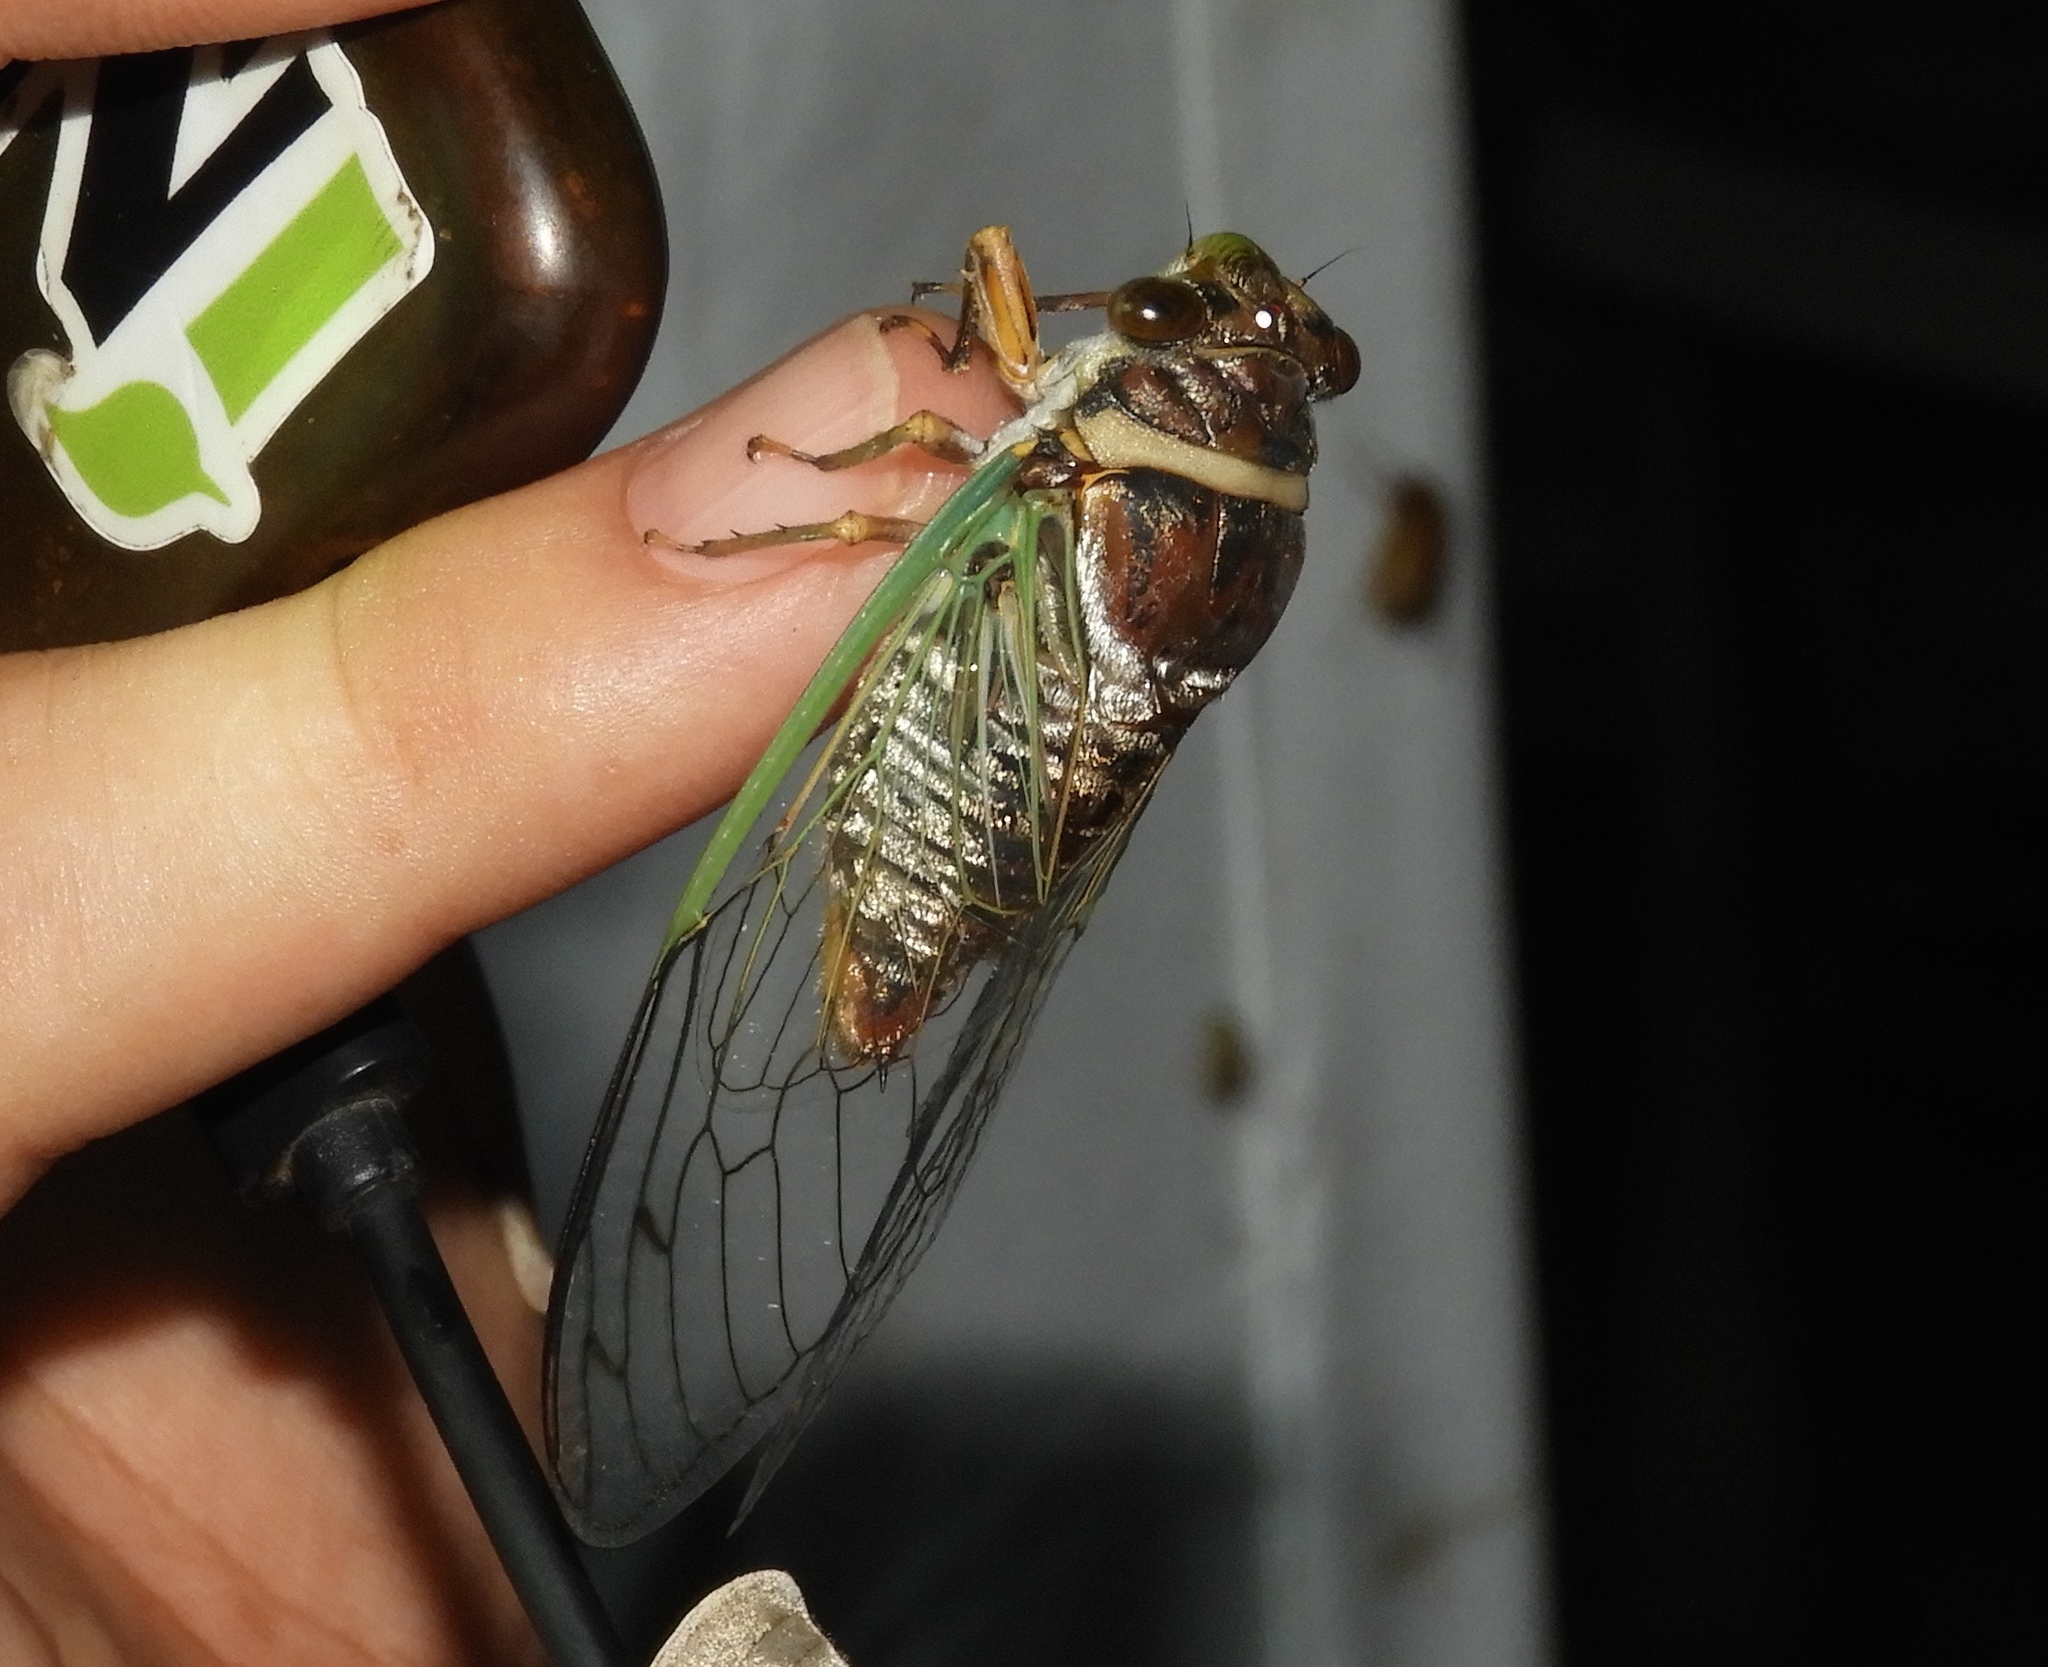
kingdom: Animalia
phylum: Arthropoda
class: Insecta
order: Hemiptera
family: Cicadidae
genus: Diceroprocta
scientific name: Diceroprocta bulgara
